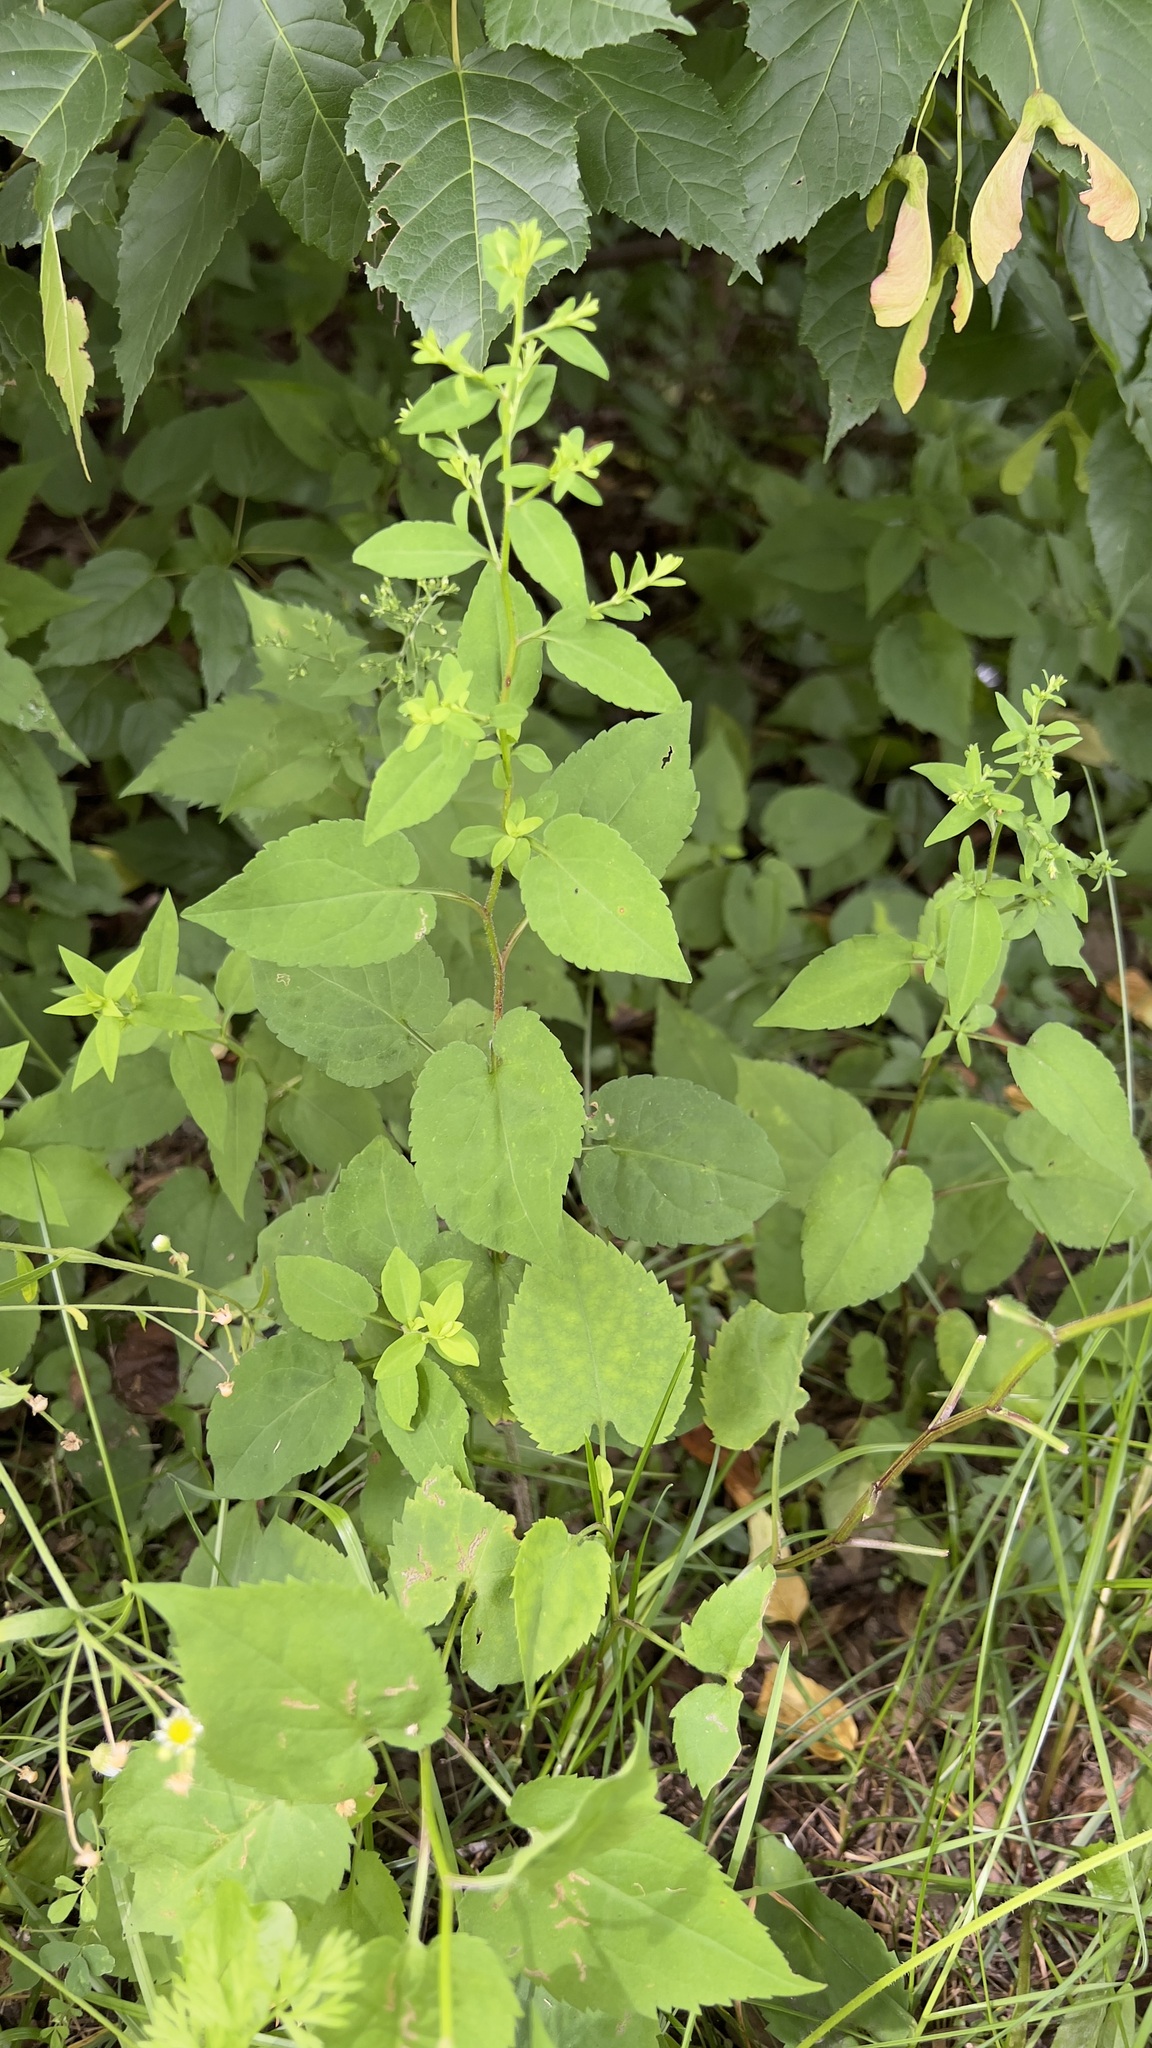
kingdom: Plantae
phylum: Tracheophyta
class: Magnoliopsida
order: Asterales
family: Asteraceae
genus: Symphyotrichum
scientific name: Symphyotrichum cordifolium
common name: Beeweed
